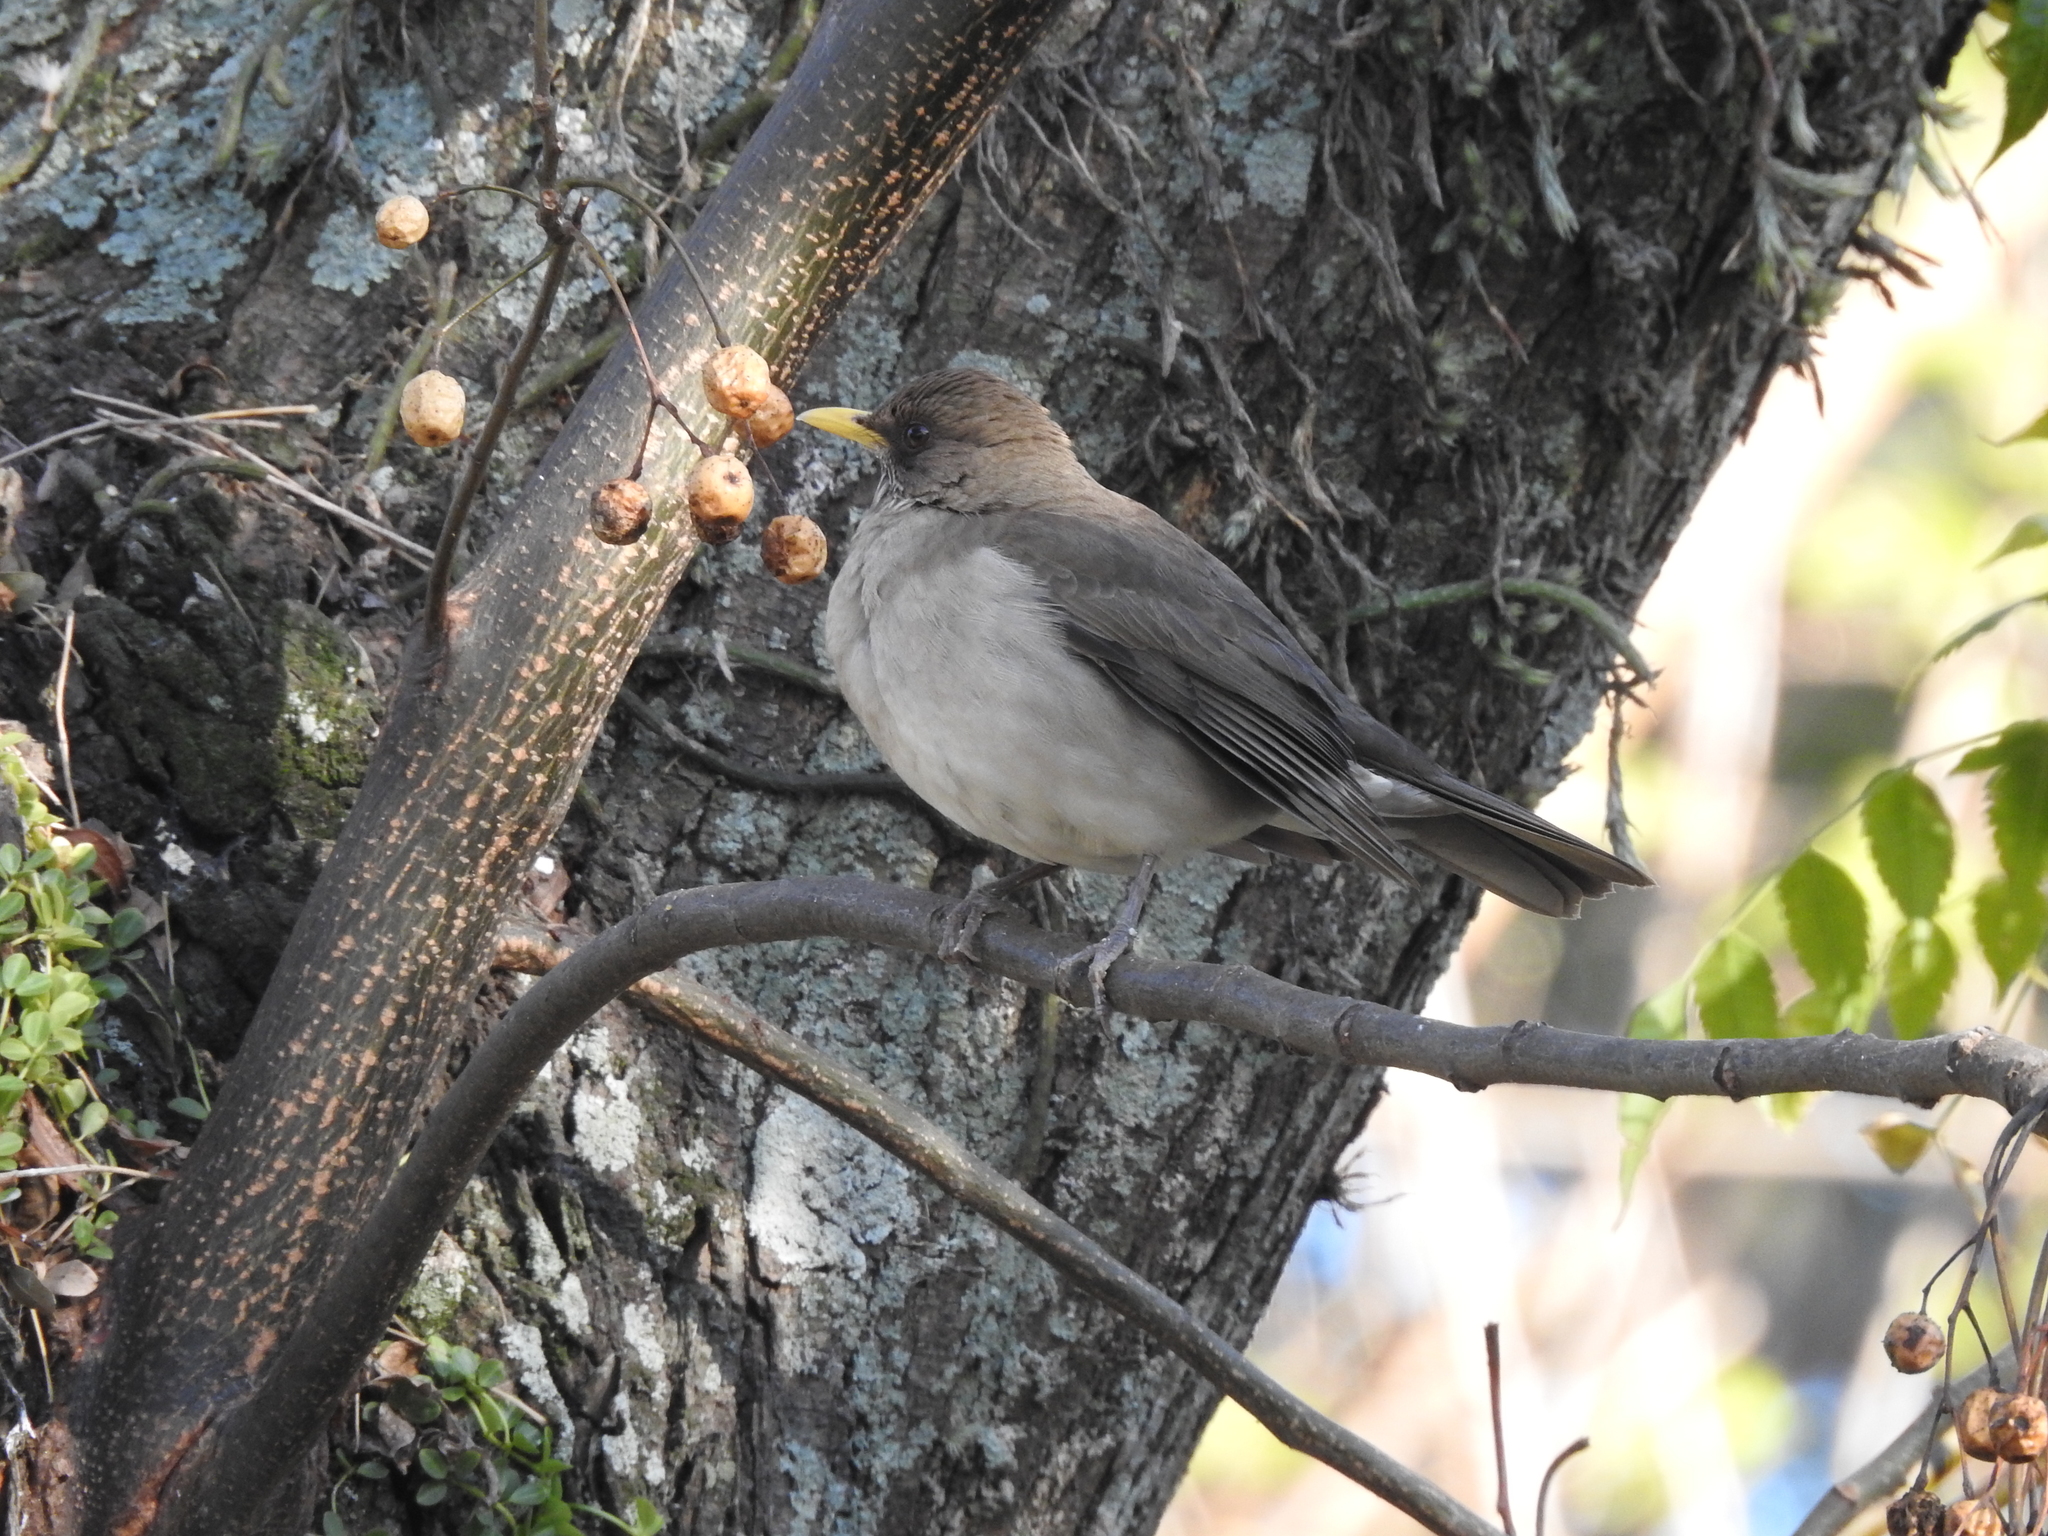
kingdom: Animalia
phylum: Chordata
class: Aves
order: Passeriformes
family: Turdidae
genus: Turdus
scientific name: Turdus amaurochalinus
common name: Creamy-bellied thrush
